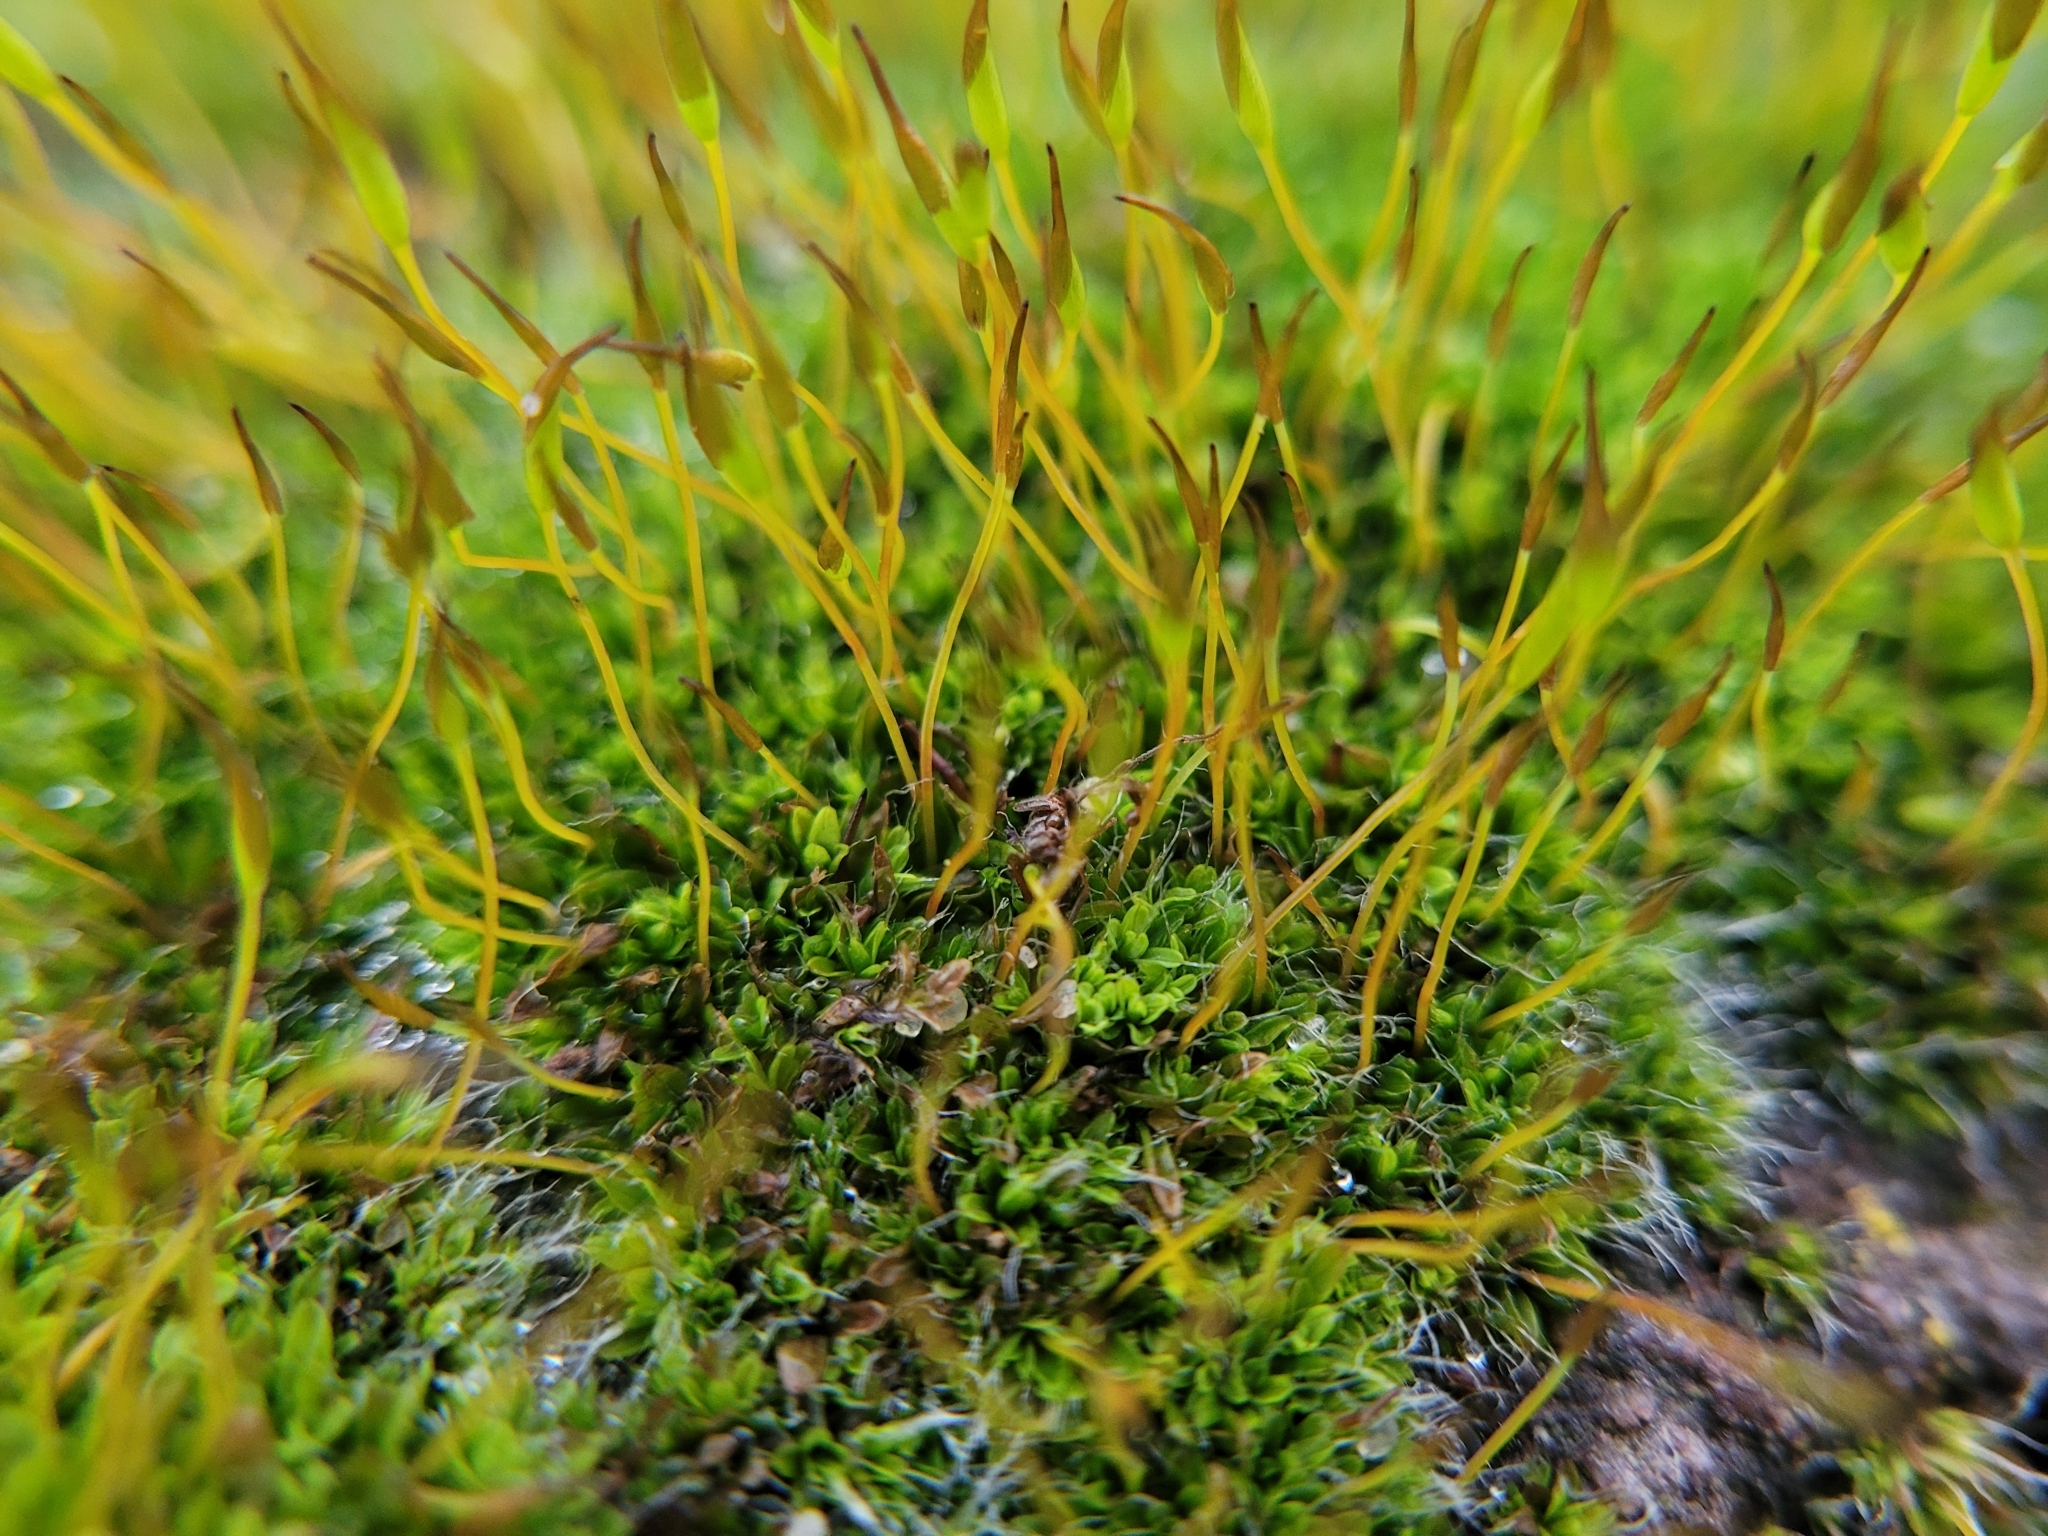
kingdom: Plantae
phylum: Bryophyta
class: Bryopsida
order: Pottiales
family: Pottiaceae
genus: Tortula
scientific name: Tortula muralis
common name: Wall screw-moss
